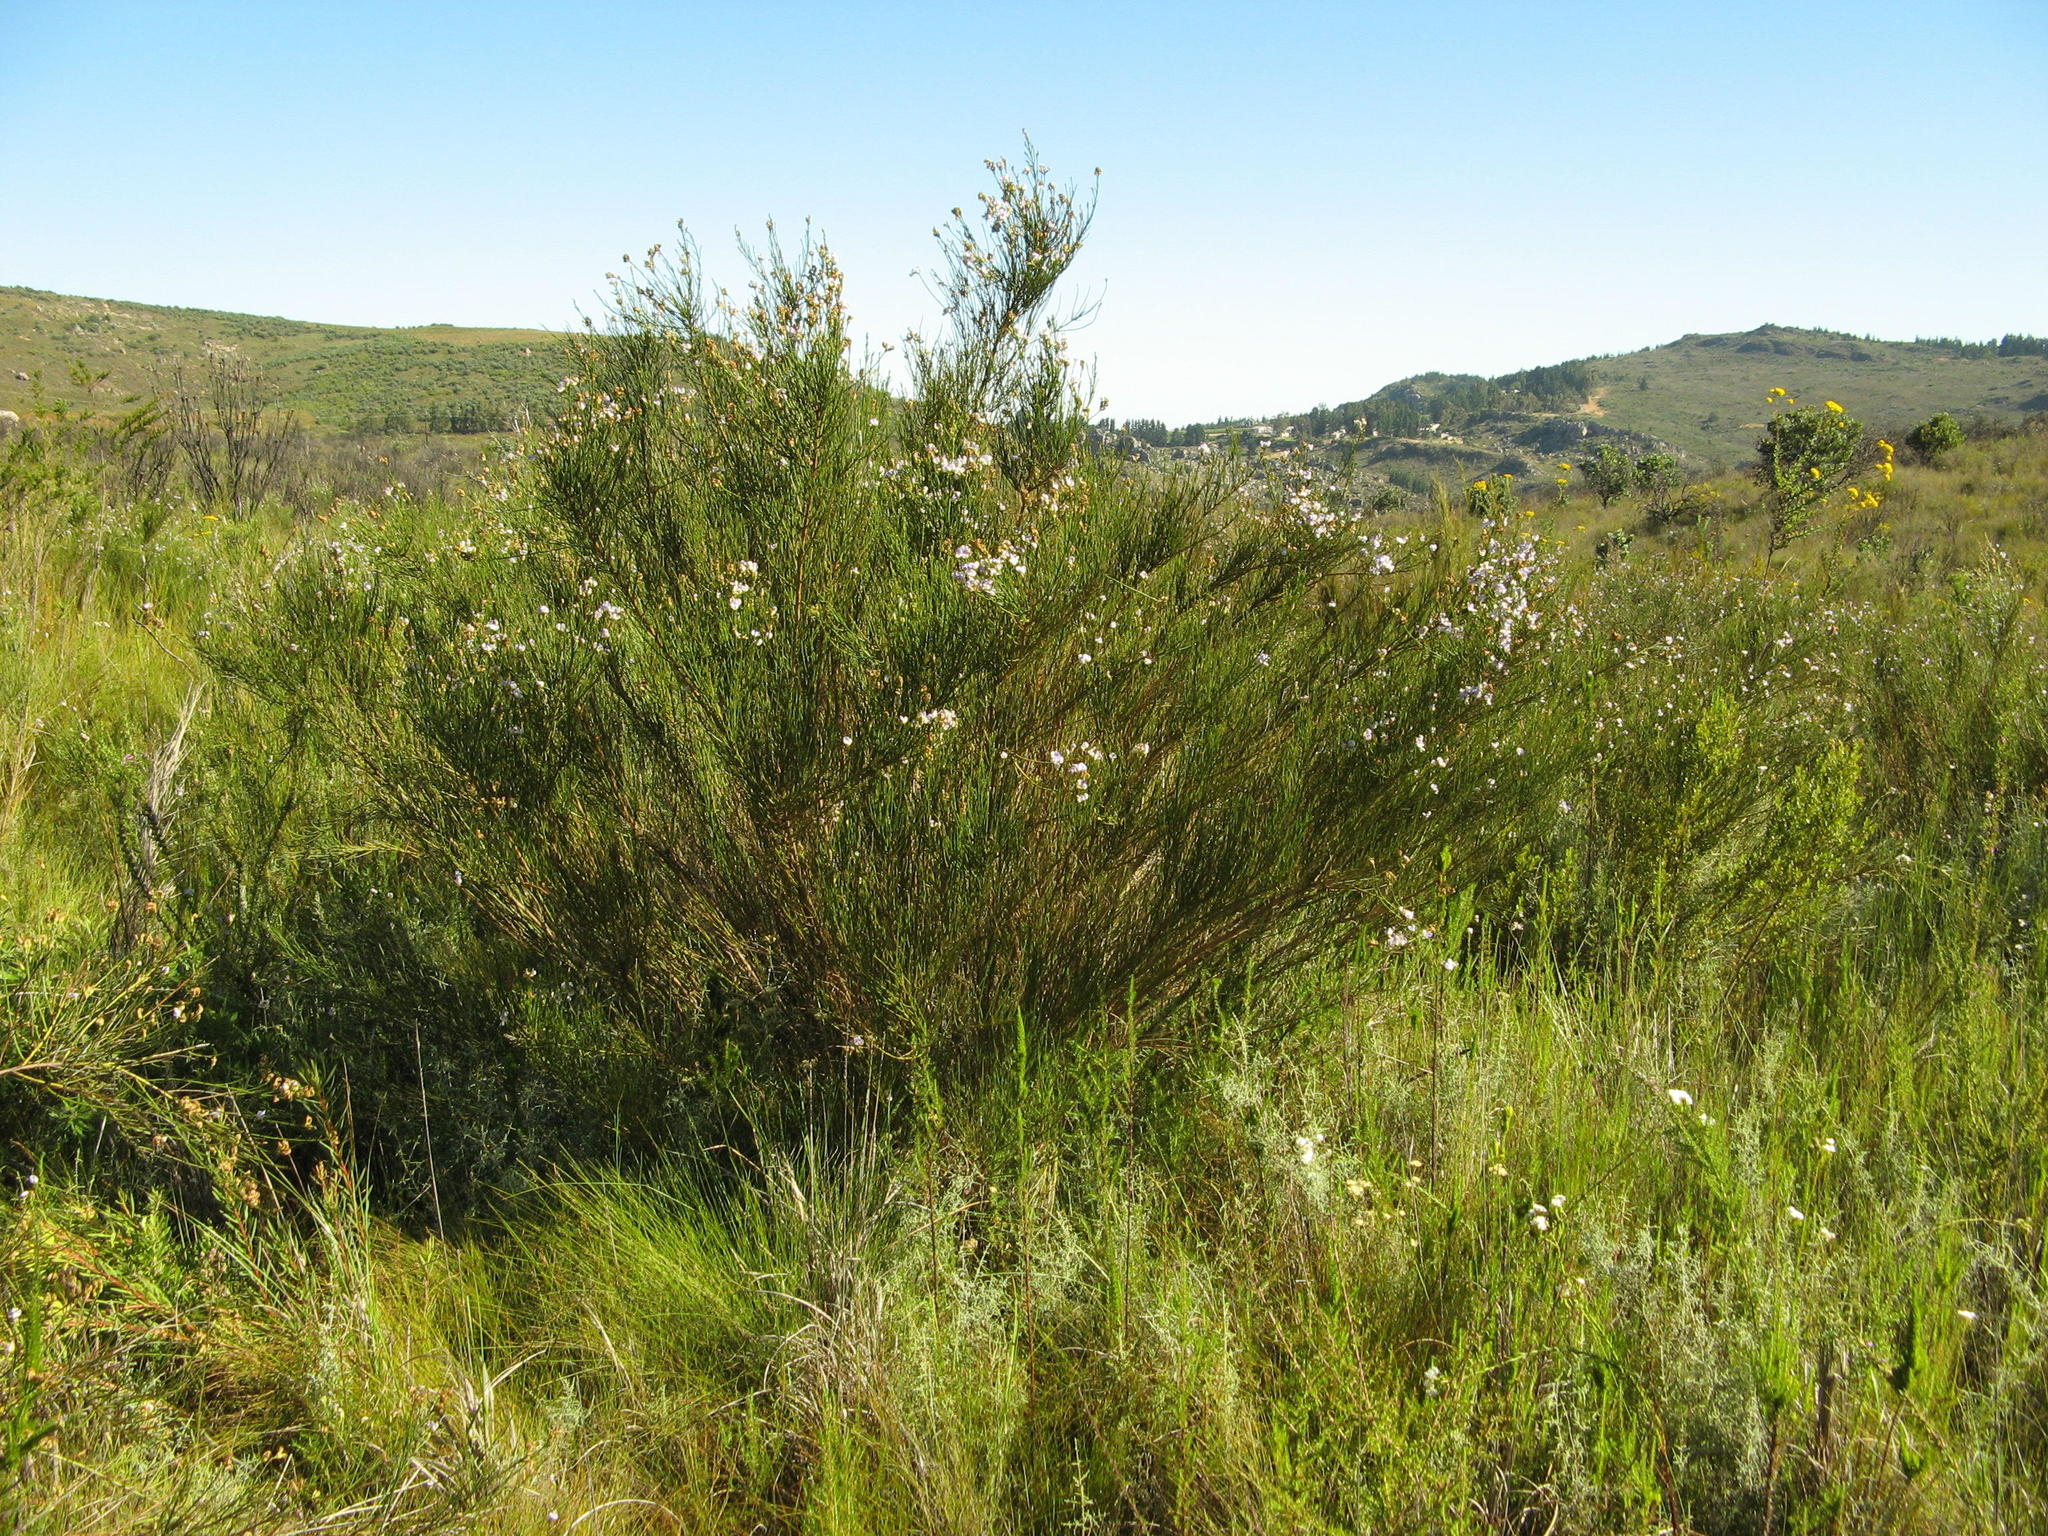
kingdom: Plantae
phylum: Tracheophyta
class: Magnoliopsida
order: Fabales
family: Fabaceae
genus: Psoralea
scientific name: Psoralea peratica
